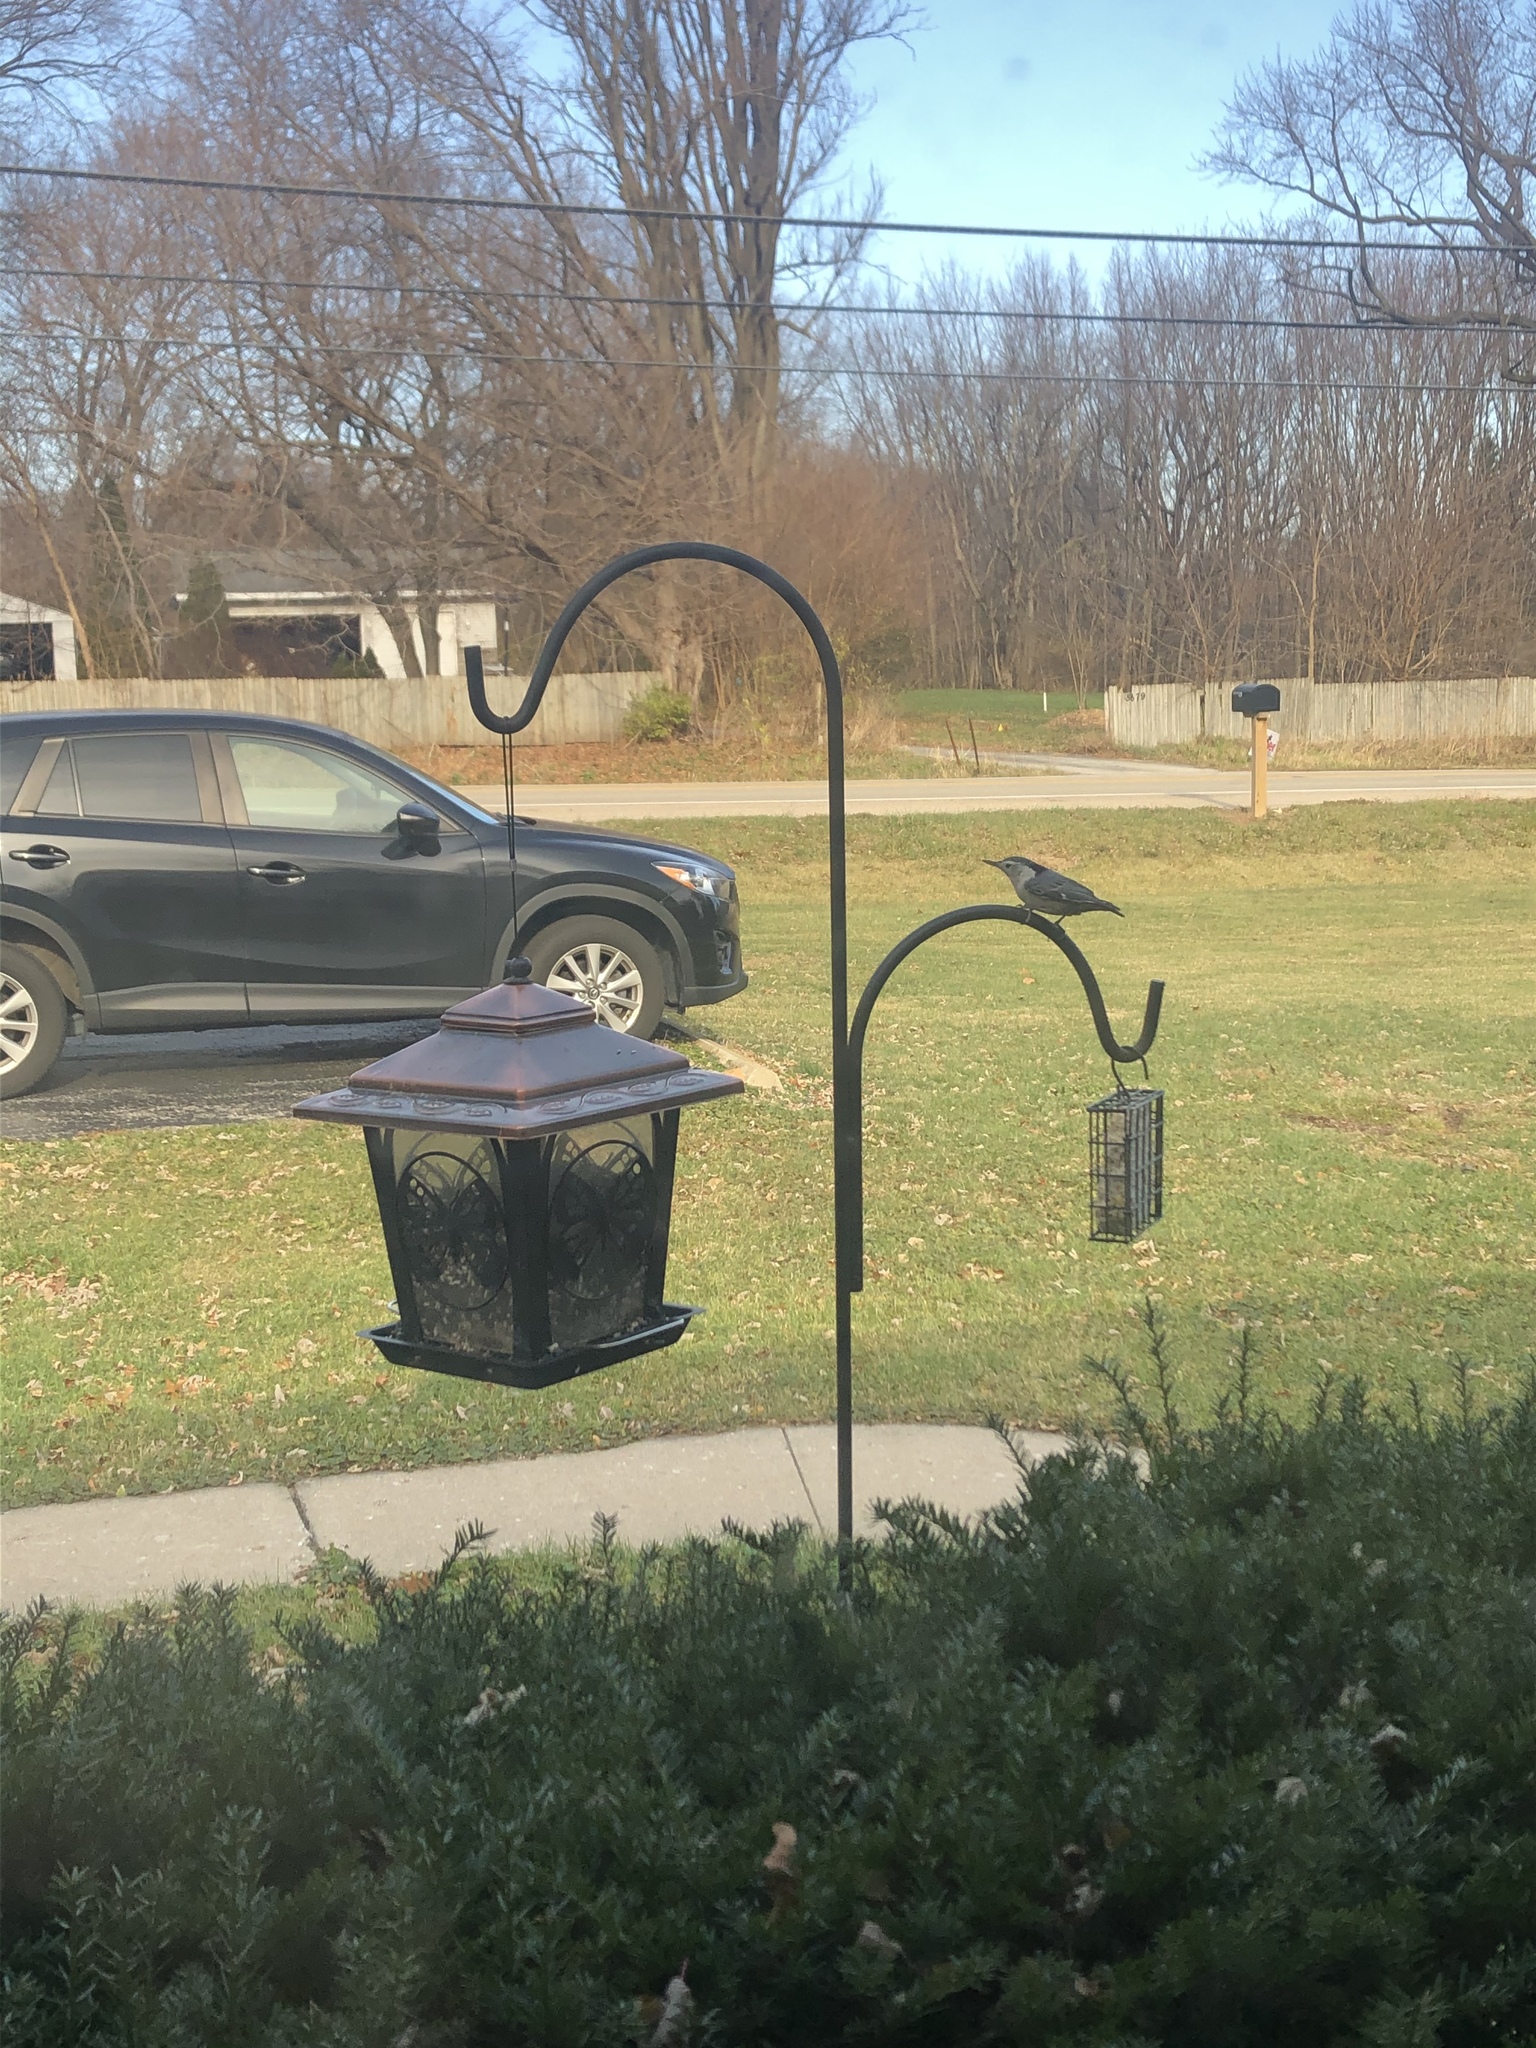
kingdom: Animalia
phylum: Chordata
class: Aves
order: Passeriformes
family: Sittidae
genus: Sitta
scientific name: Sitta carolinensis
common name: White-breasted nuthatch
